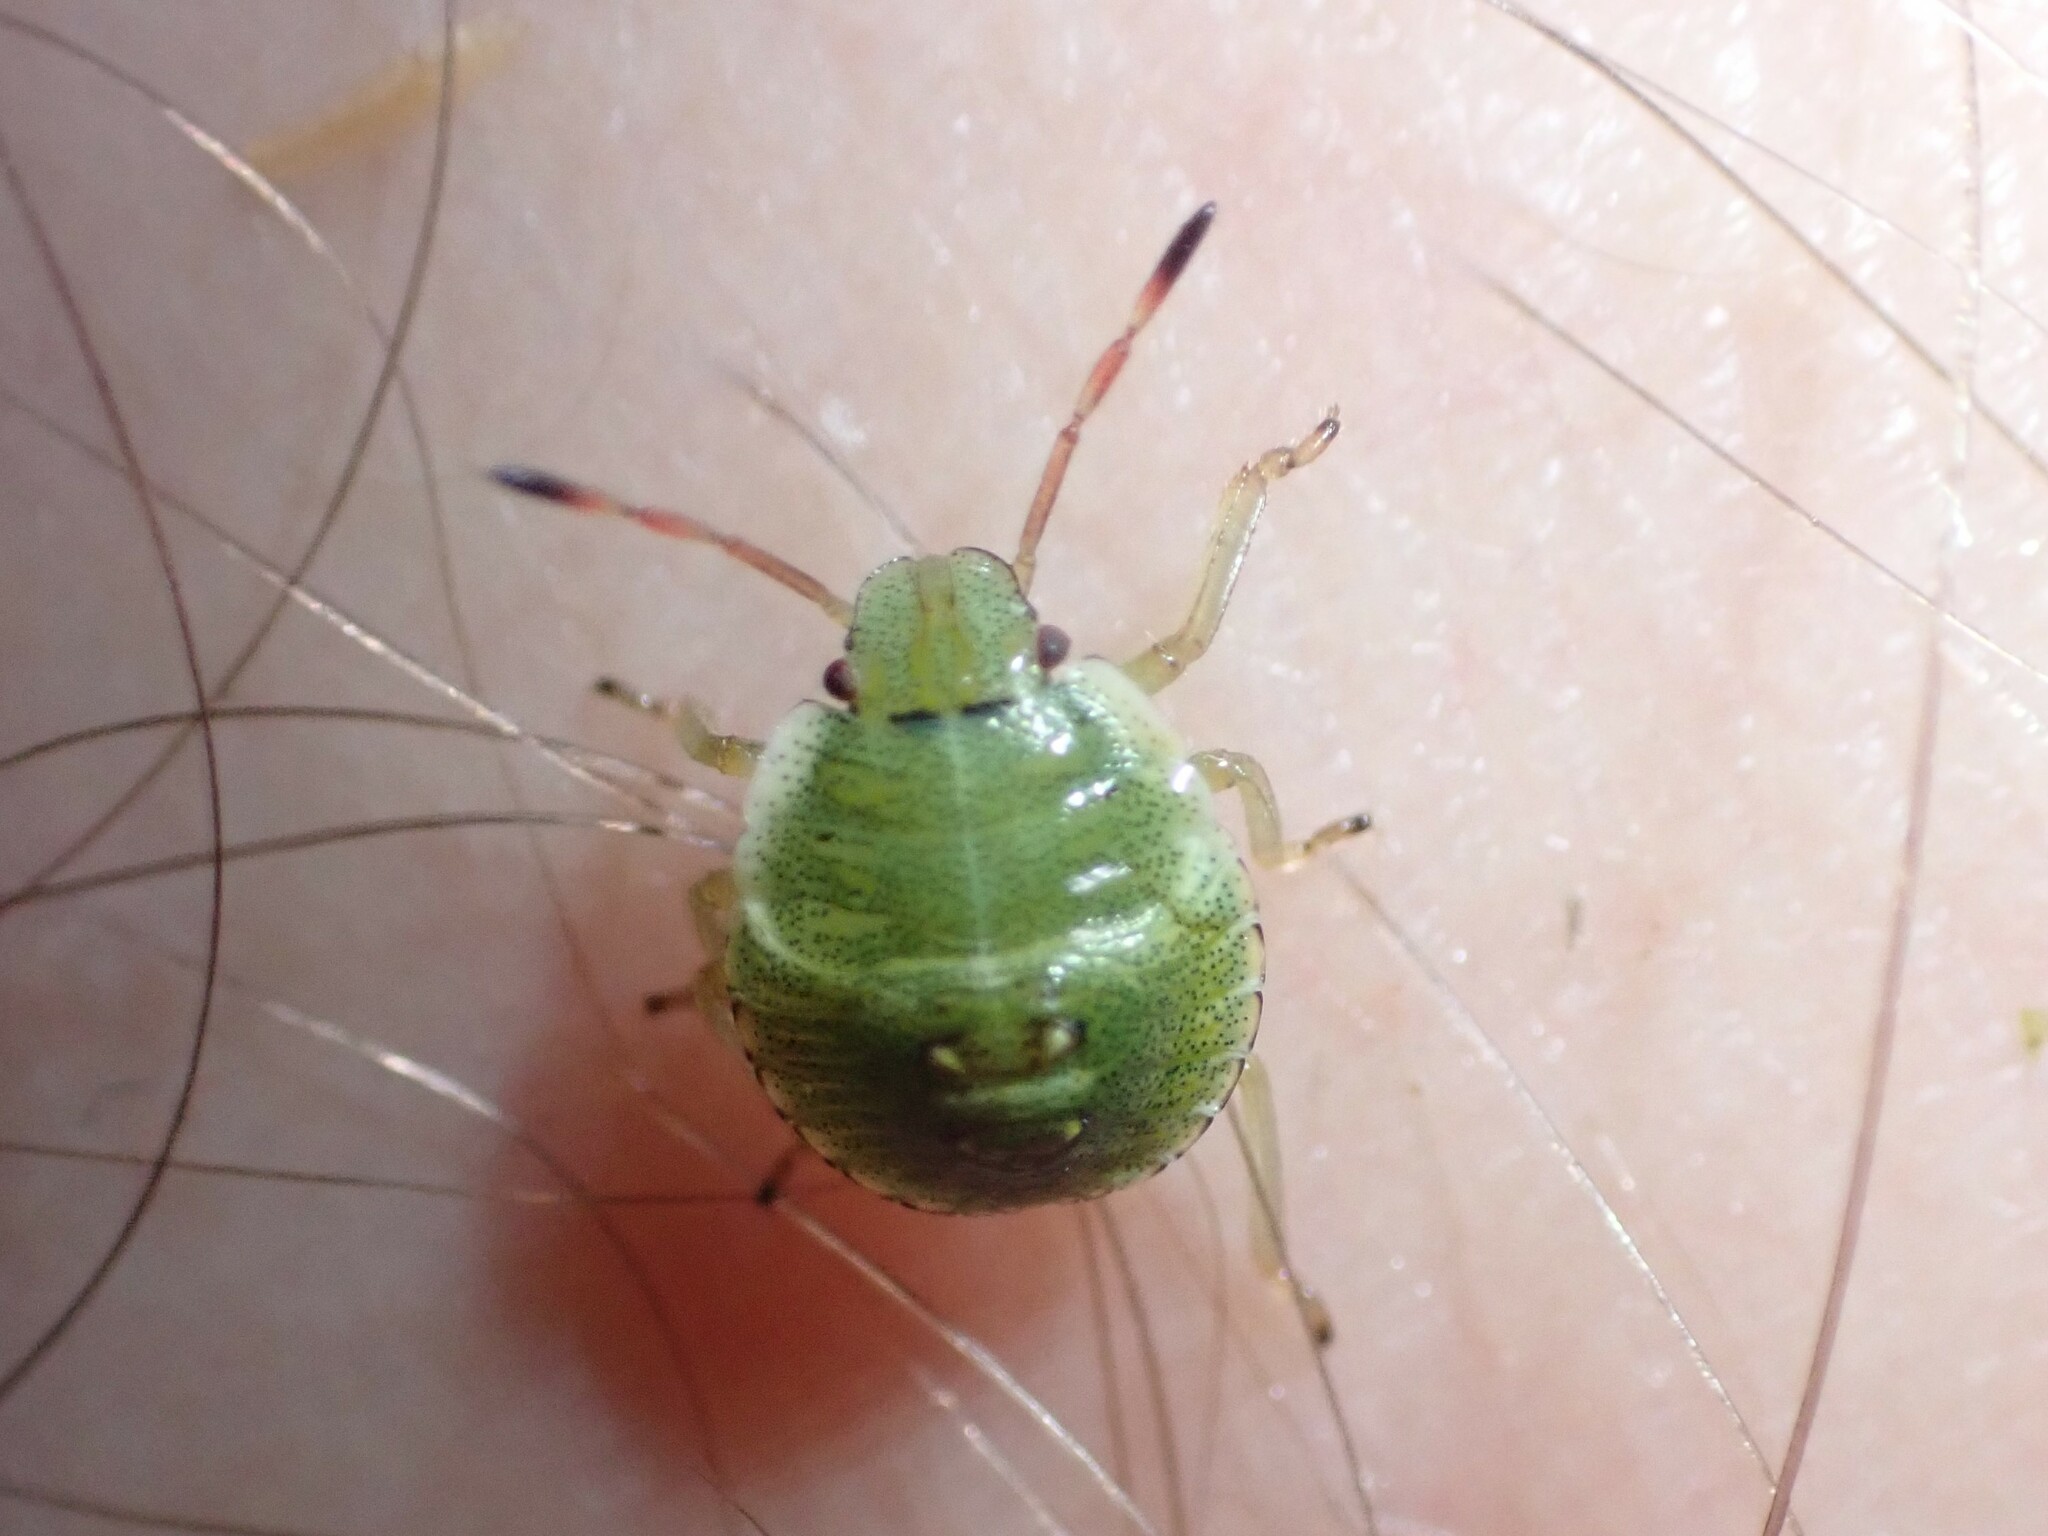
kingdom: Animalia
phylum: Arthropoda
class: Insecta
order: Hemiptera
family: Pentatomidae
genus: Palomena
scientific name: Palomena prasina
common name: Green shieldbug
